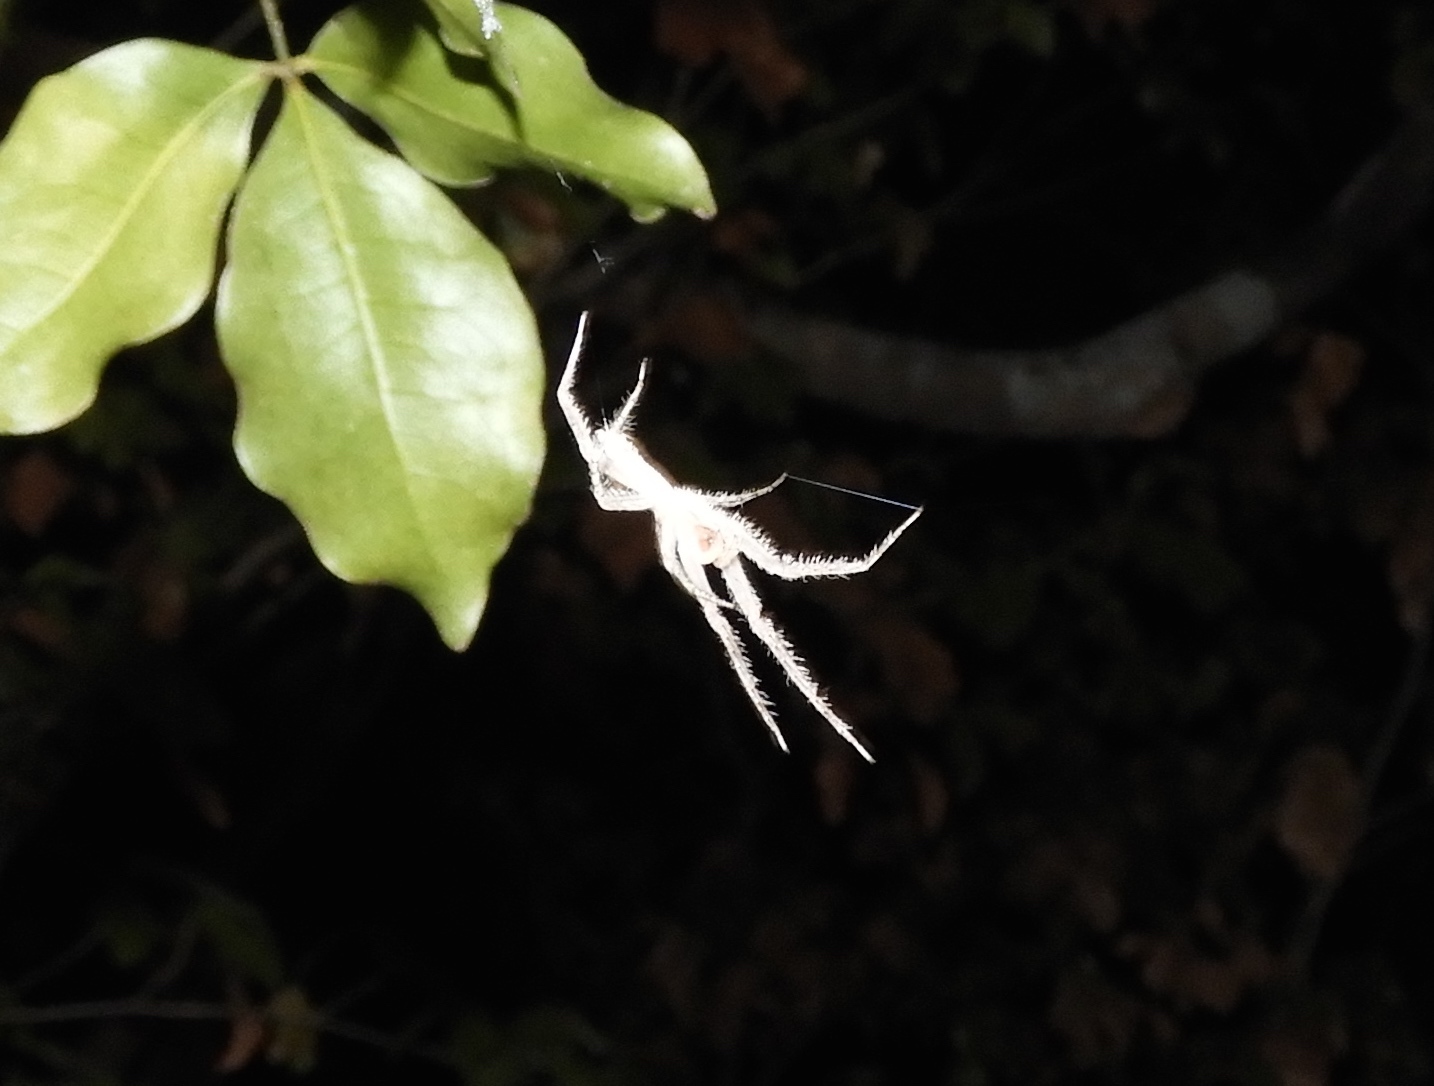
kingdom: Animalia
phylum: Arthropoda
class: Arachnida
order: Araneae
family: Senoculidae
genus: Senoculus
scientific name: Senoculus
